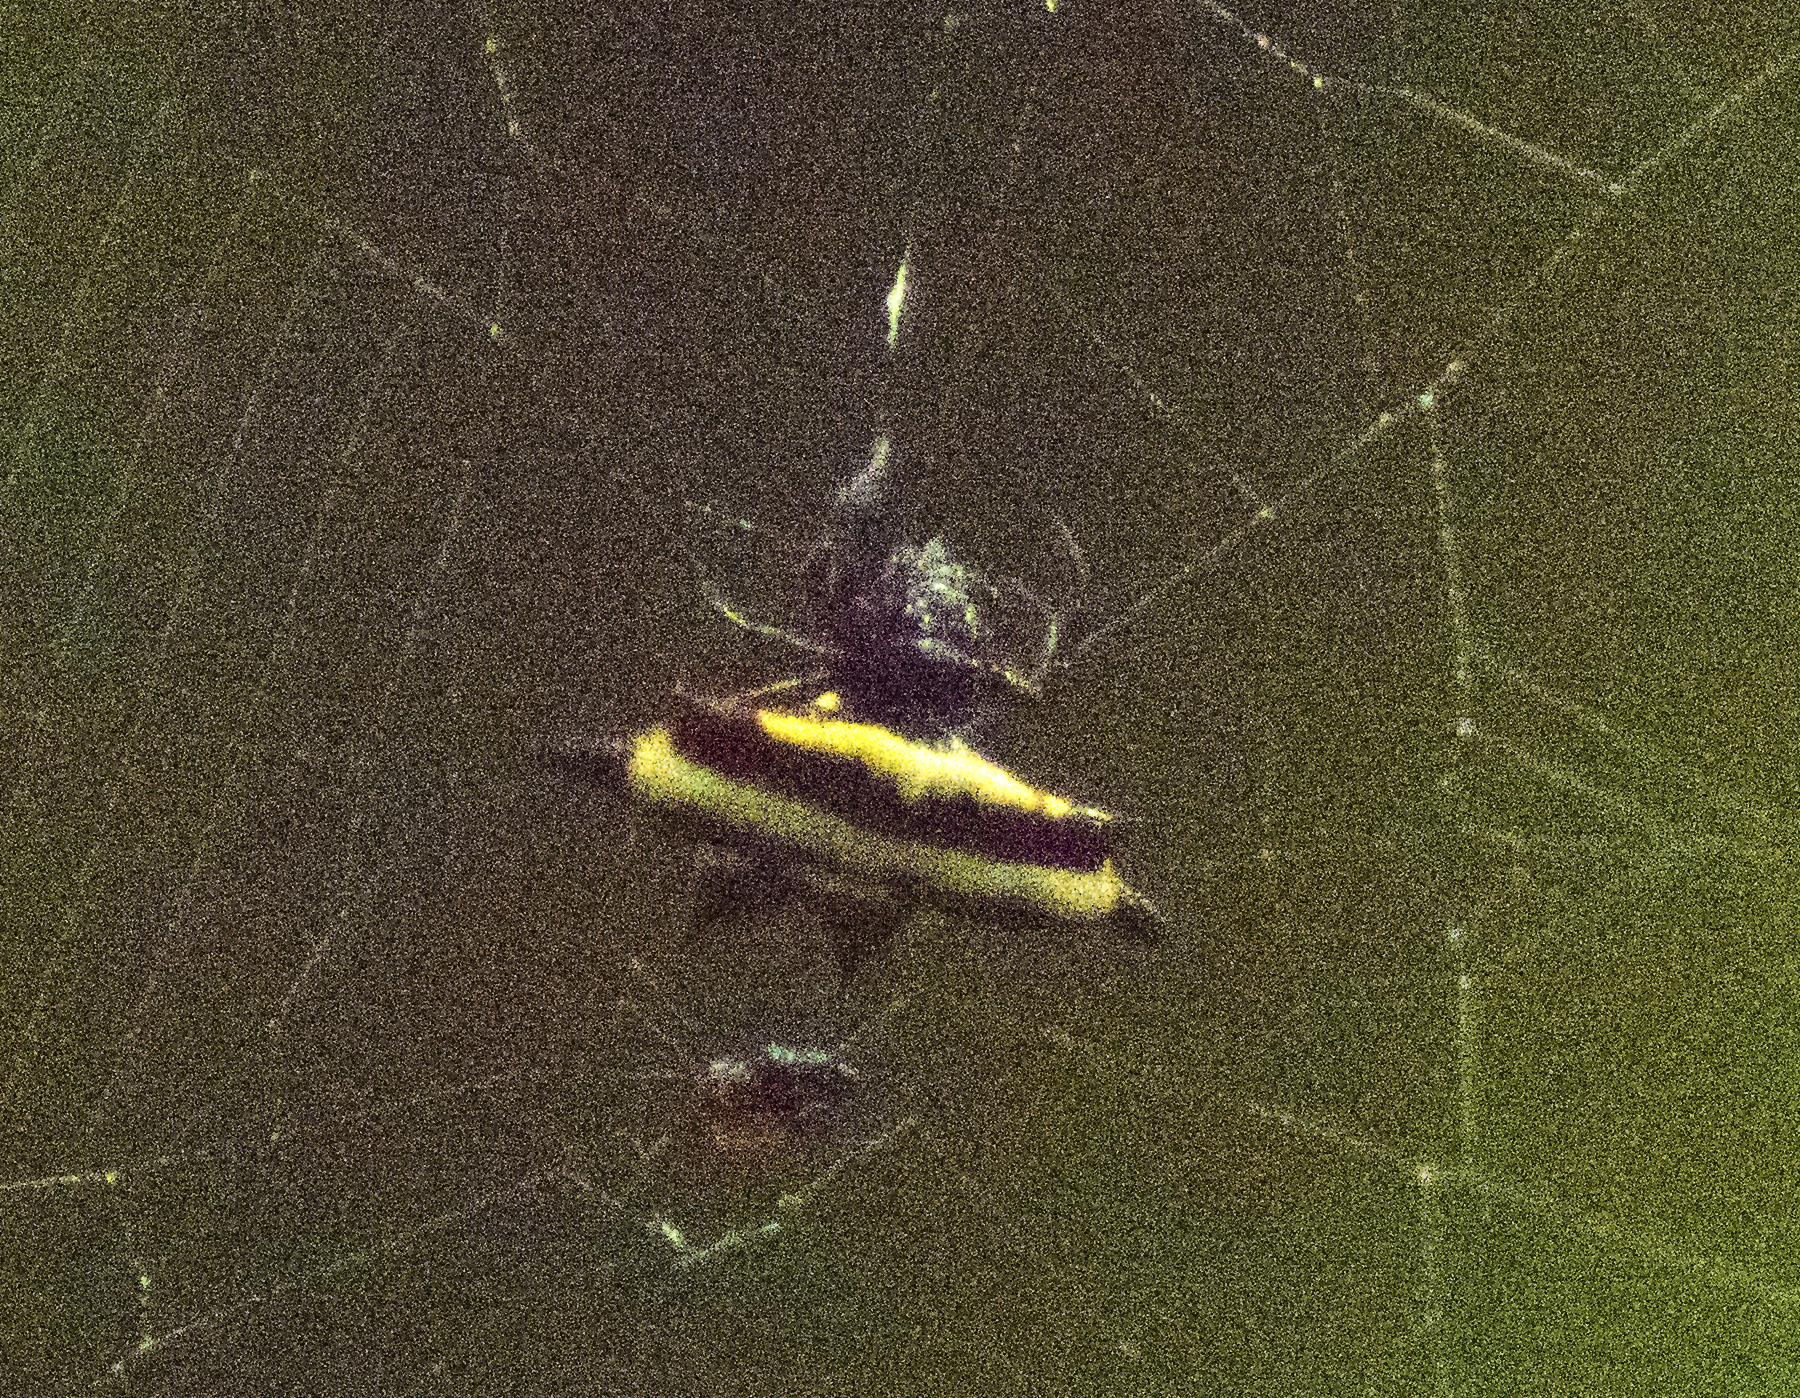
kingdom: Animalia
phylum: Arthropoda
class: Arachnida
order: Araneae
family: Araneidae
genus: Gasteracantha
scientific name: Gasteracantha fornicata
